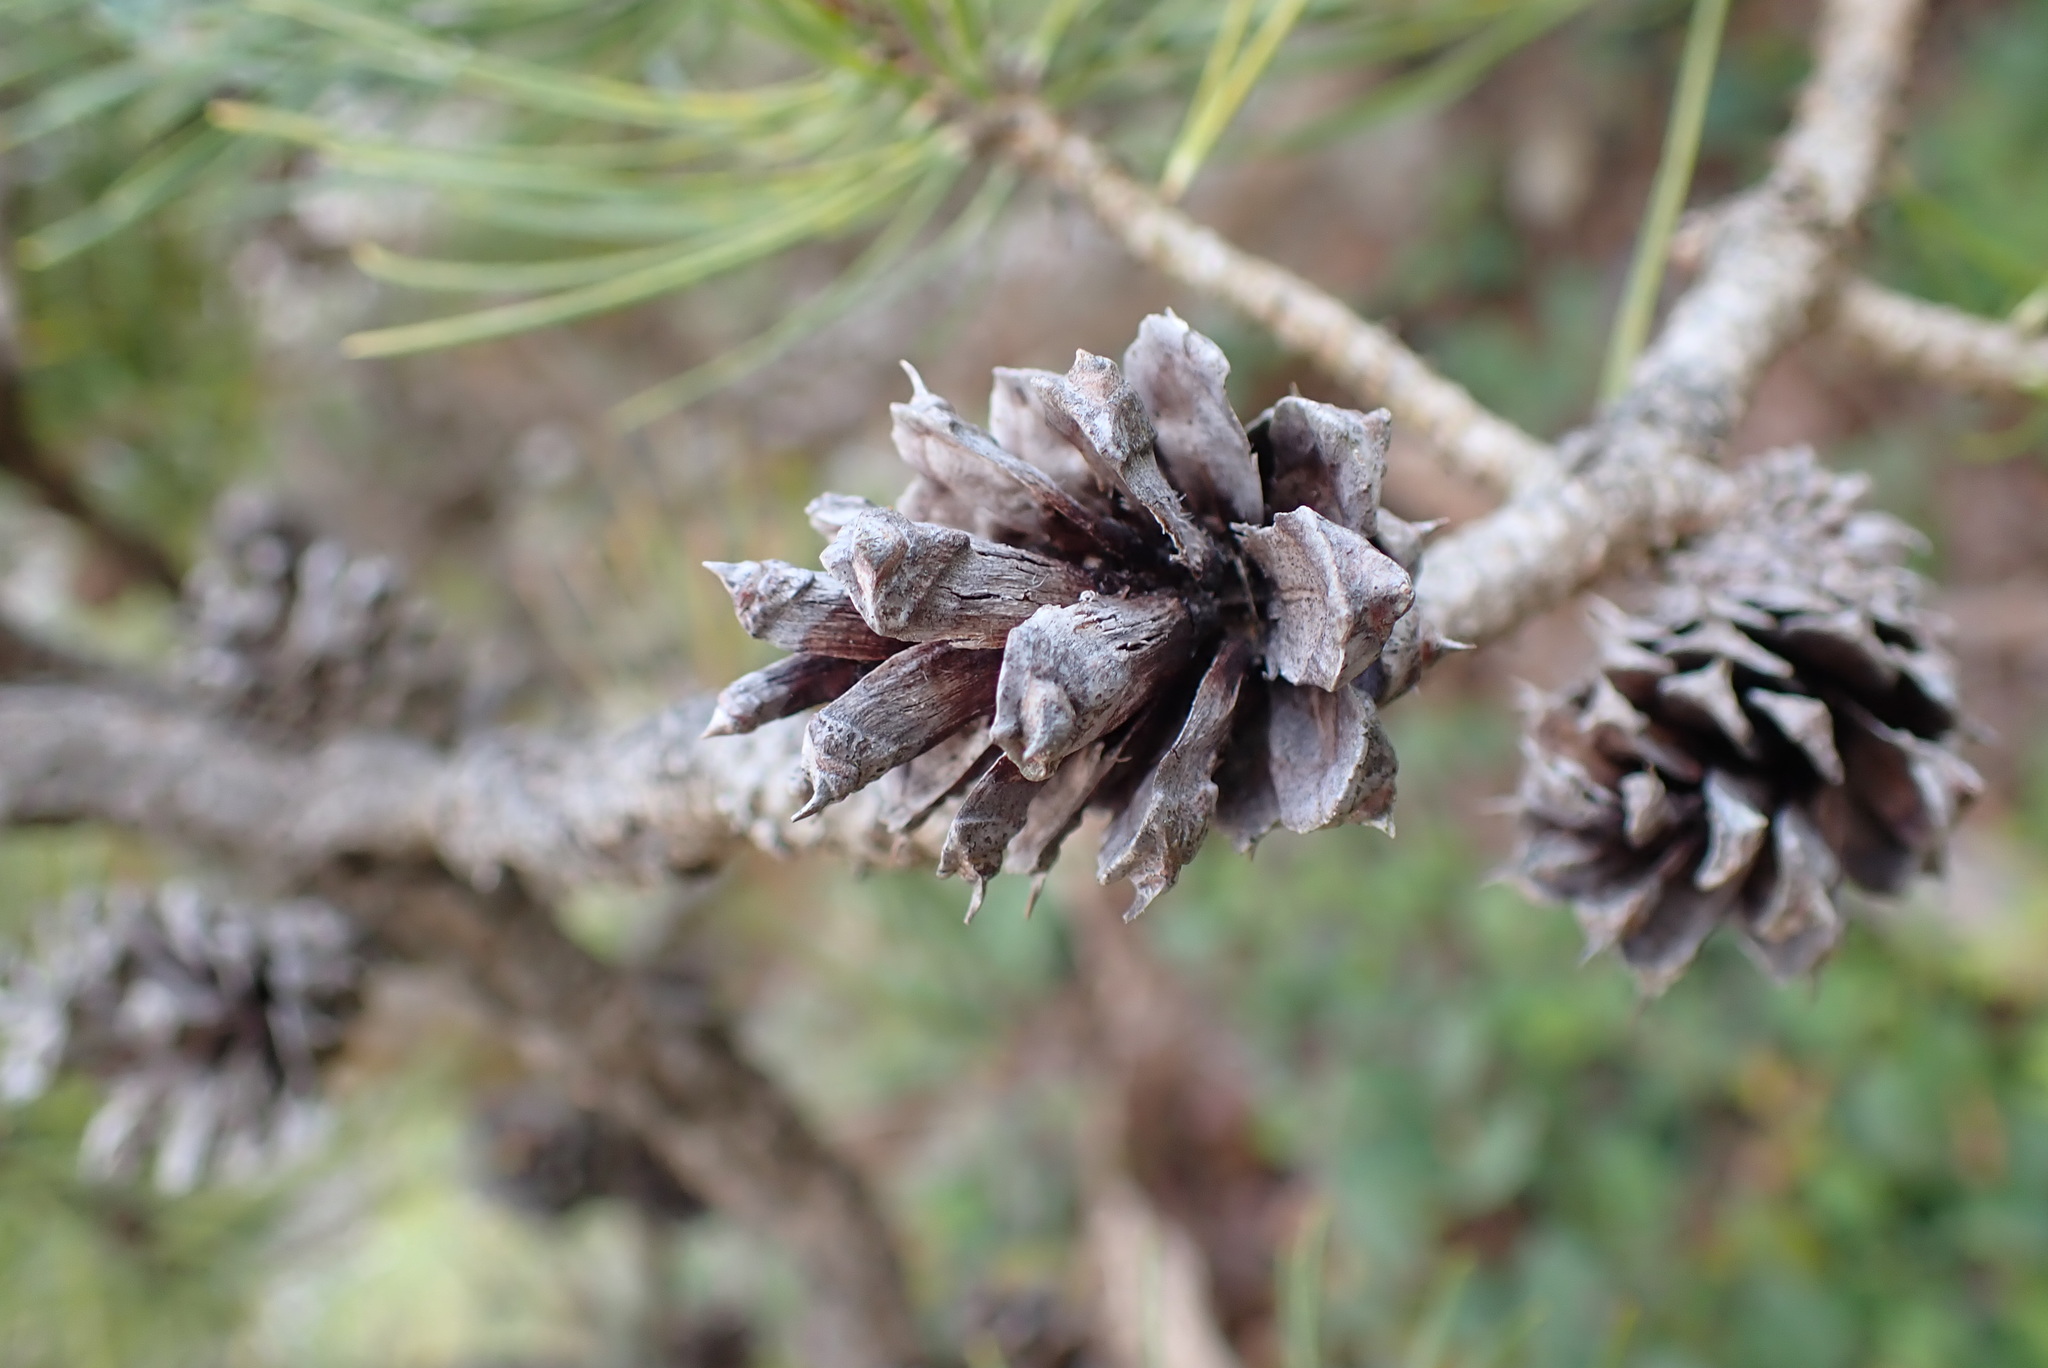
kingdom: Plantae
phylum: Tracheophyta
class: Pinopsida
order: Pinales
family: Pinaceae
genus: Pinus
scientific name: Pinus contorta
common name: Lodgepole pine
